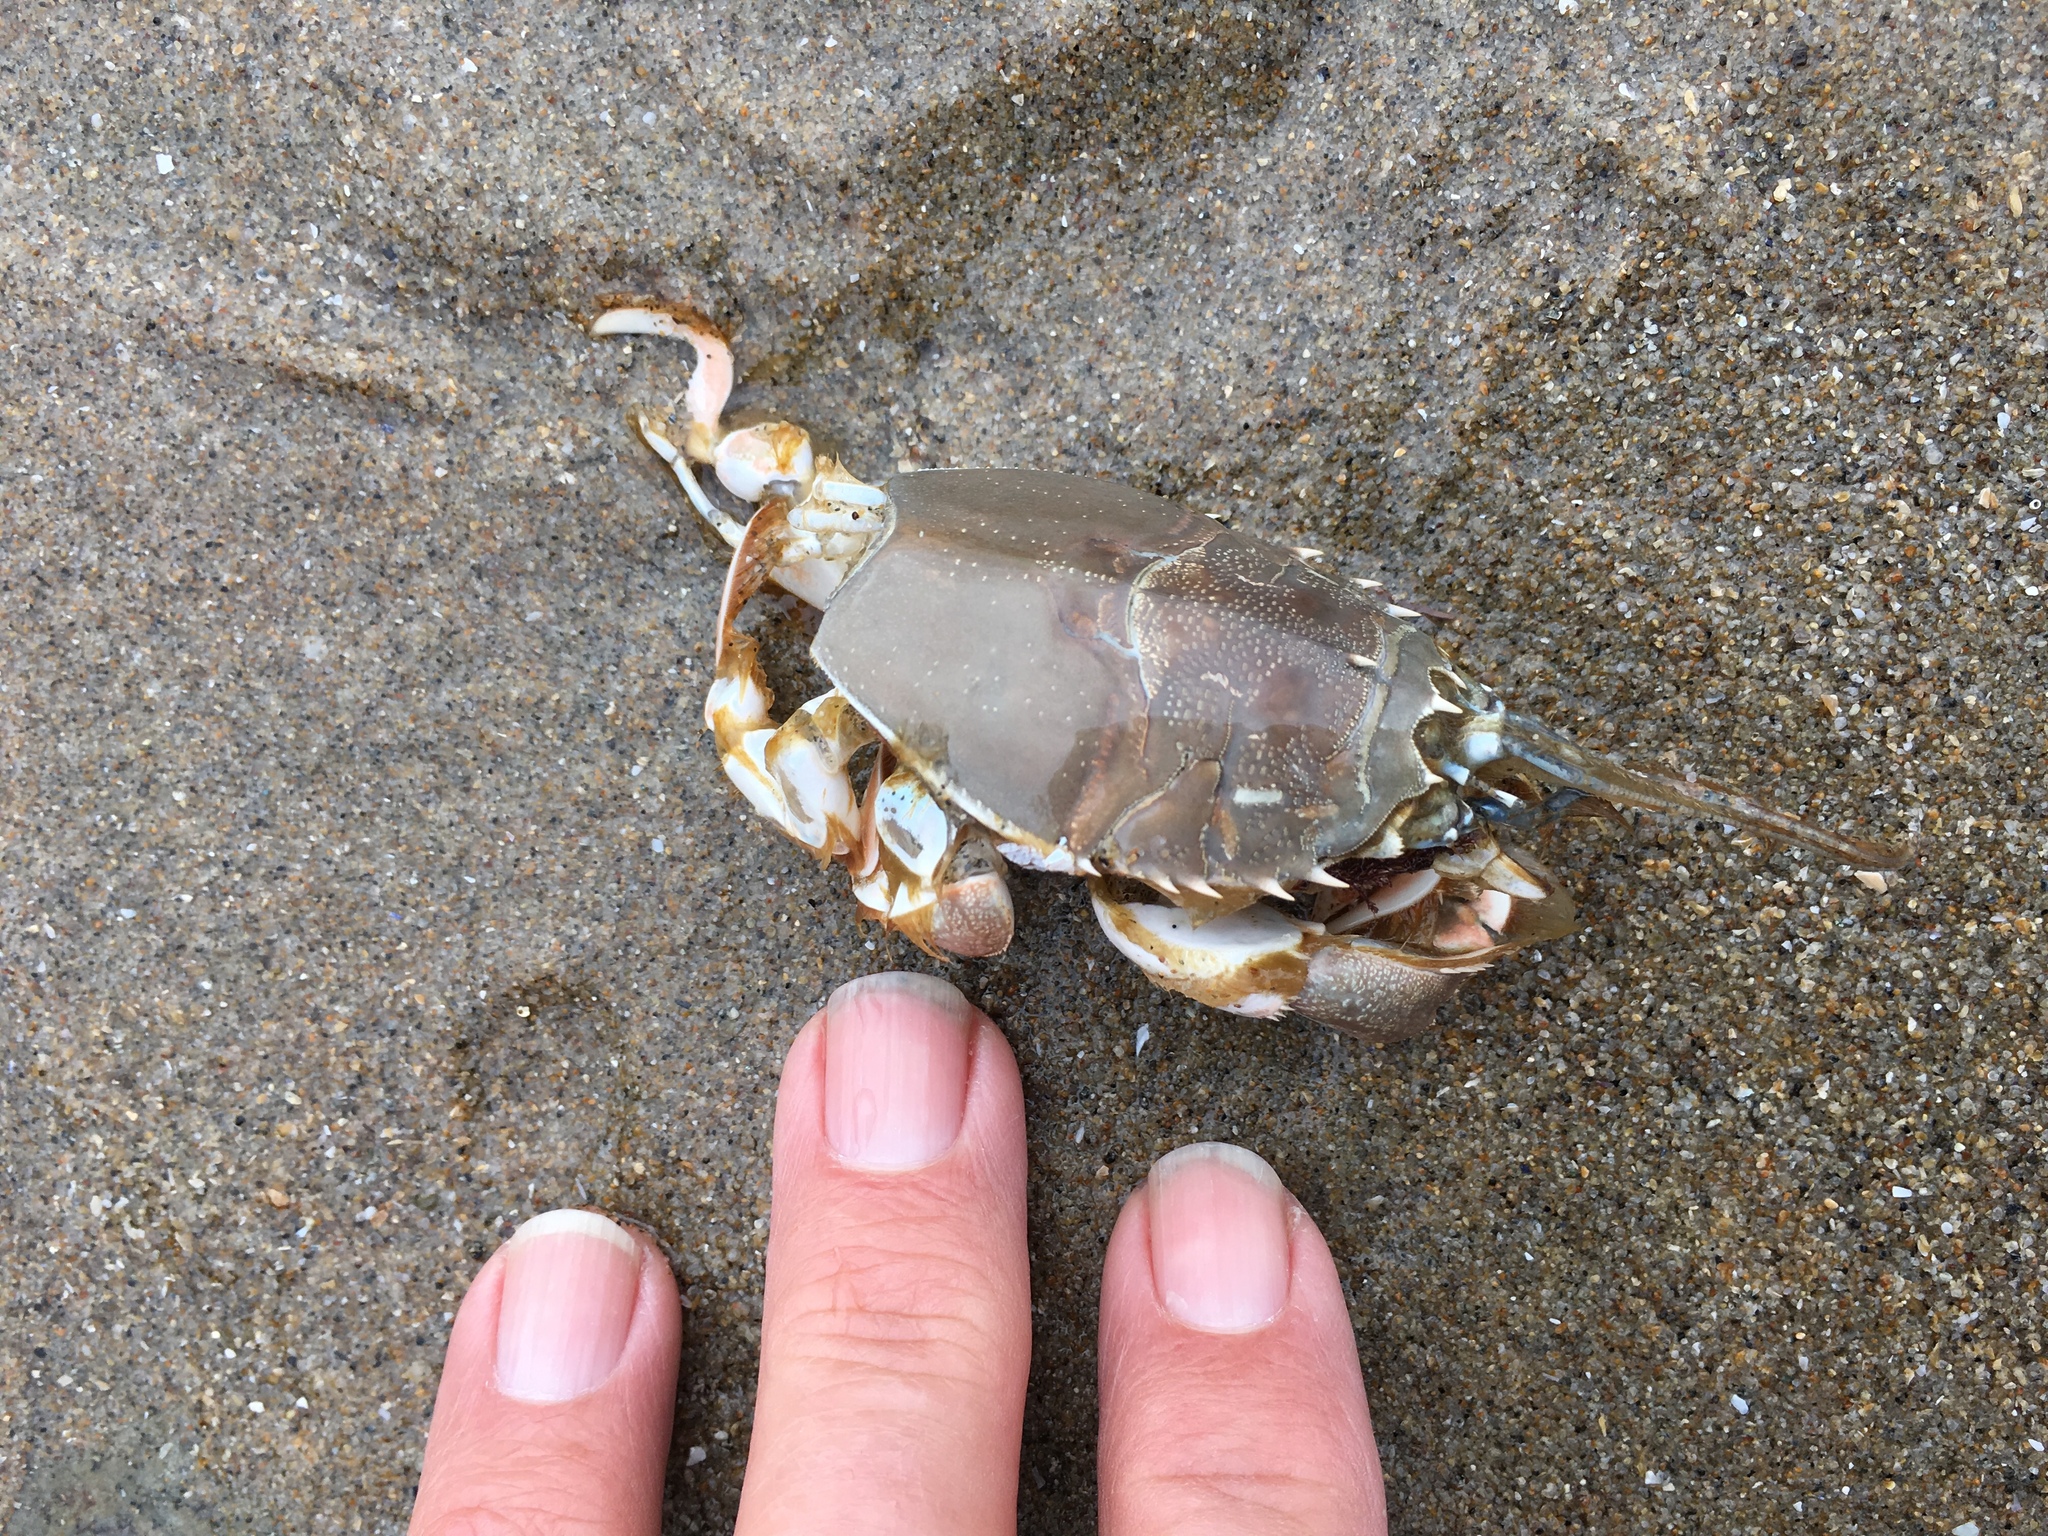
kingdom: Animalia
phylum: Arthropoda
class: Malacostraca
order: Decapoda
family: Blepharipodidae
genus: Blepharipoda
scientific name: Blepharipoda occidentalis
